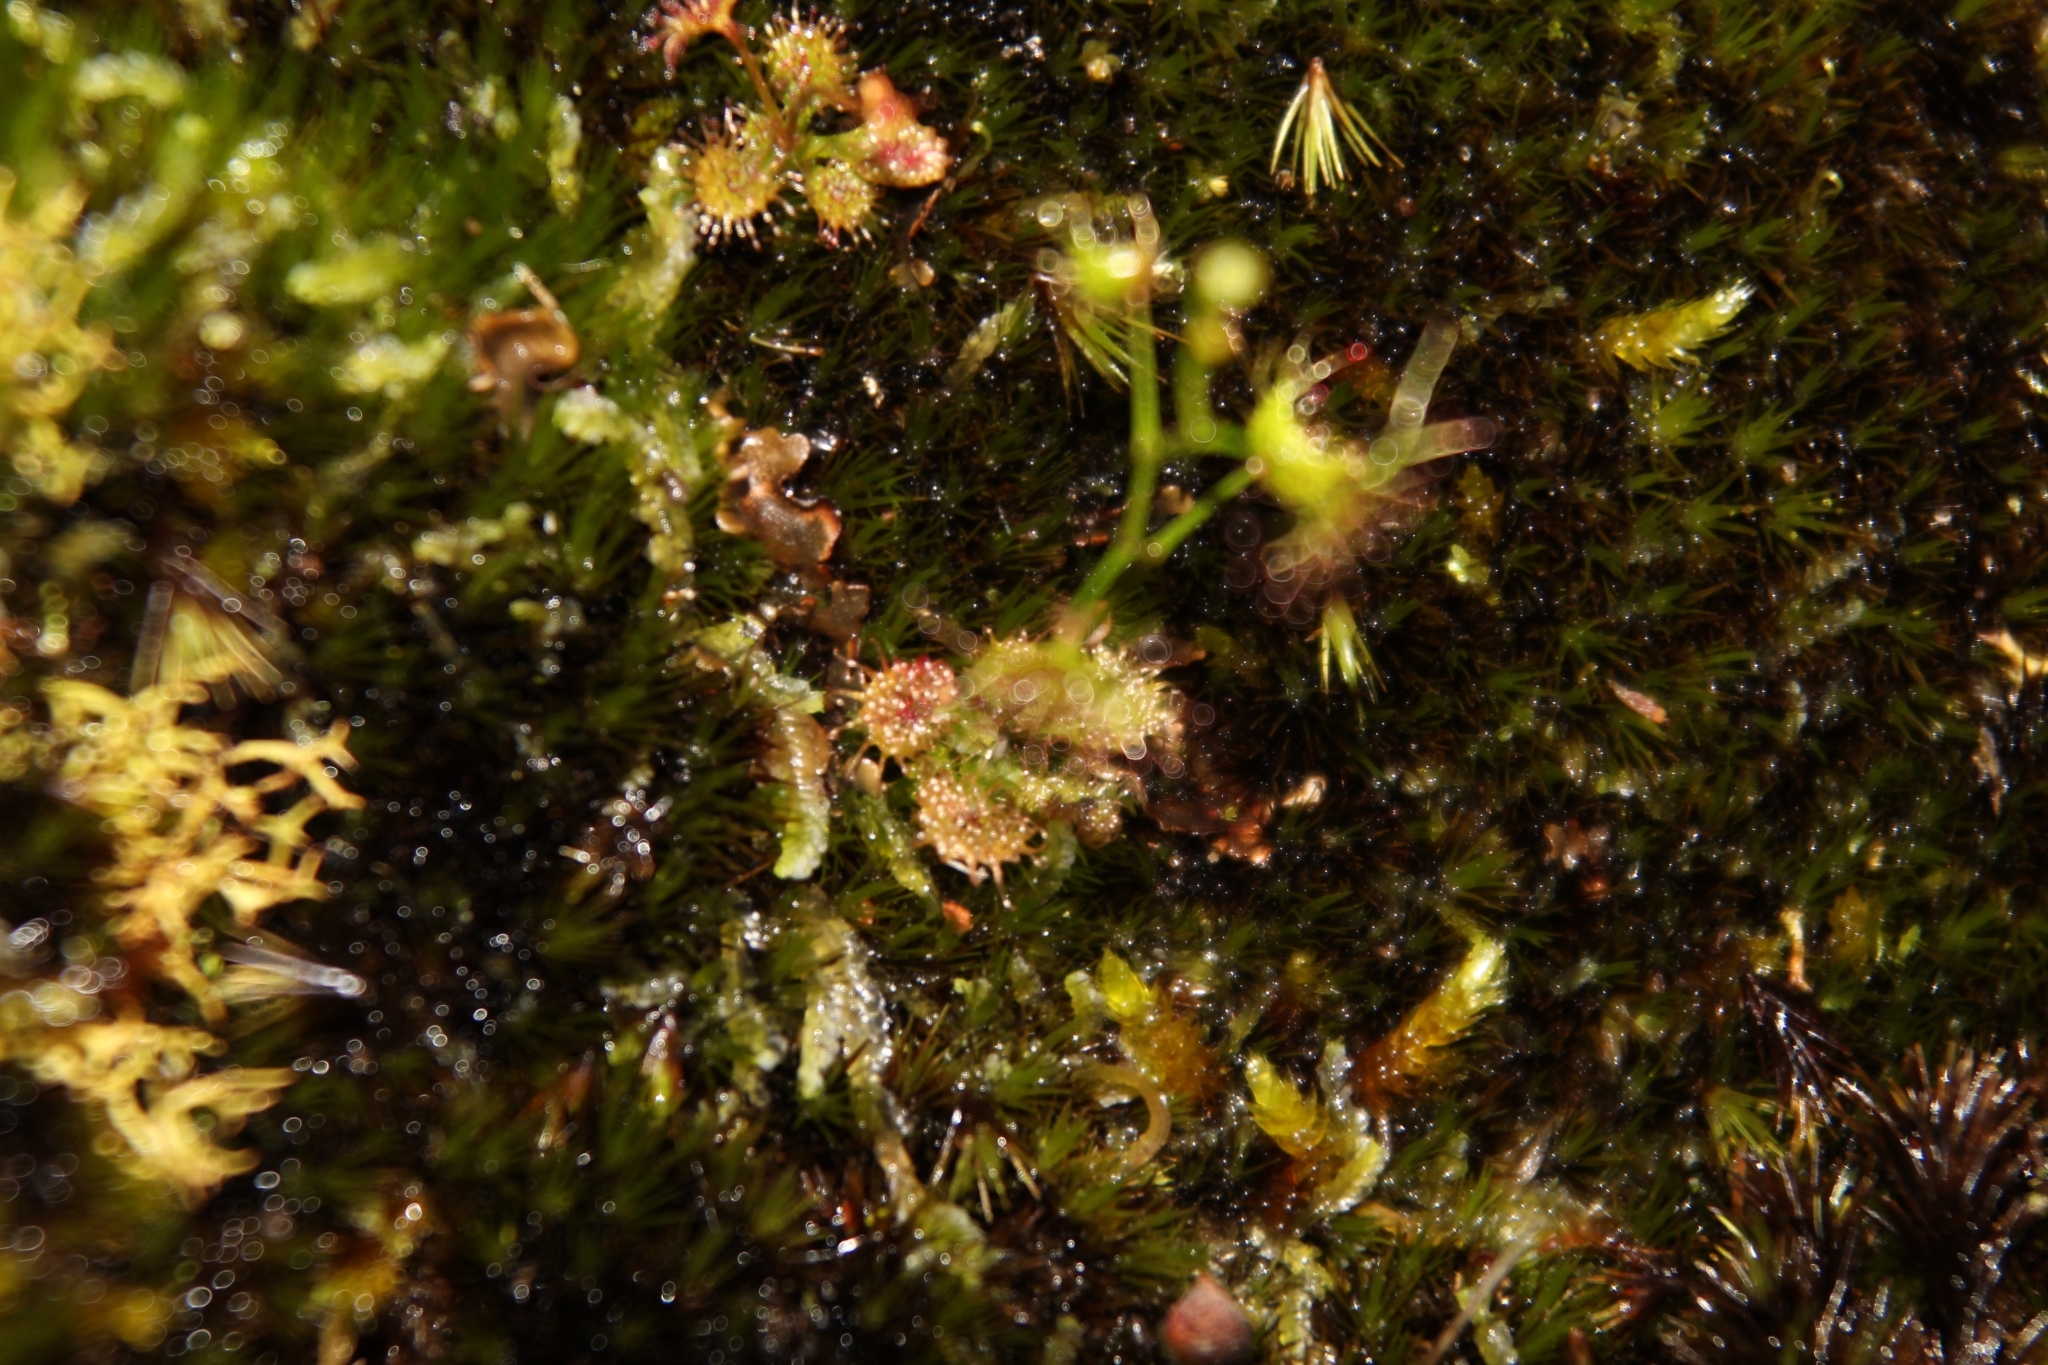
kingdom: Plantae
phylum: Tracheophyta
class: Magnoliopsida
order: Caryophyllales
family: Droseraceae
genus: Drosera
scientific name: Drosera modesta
